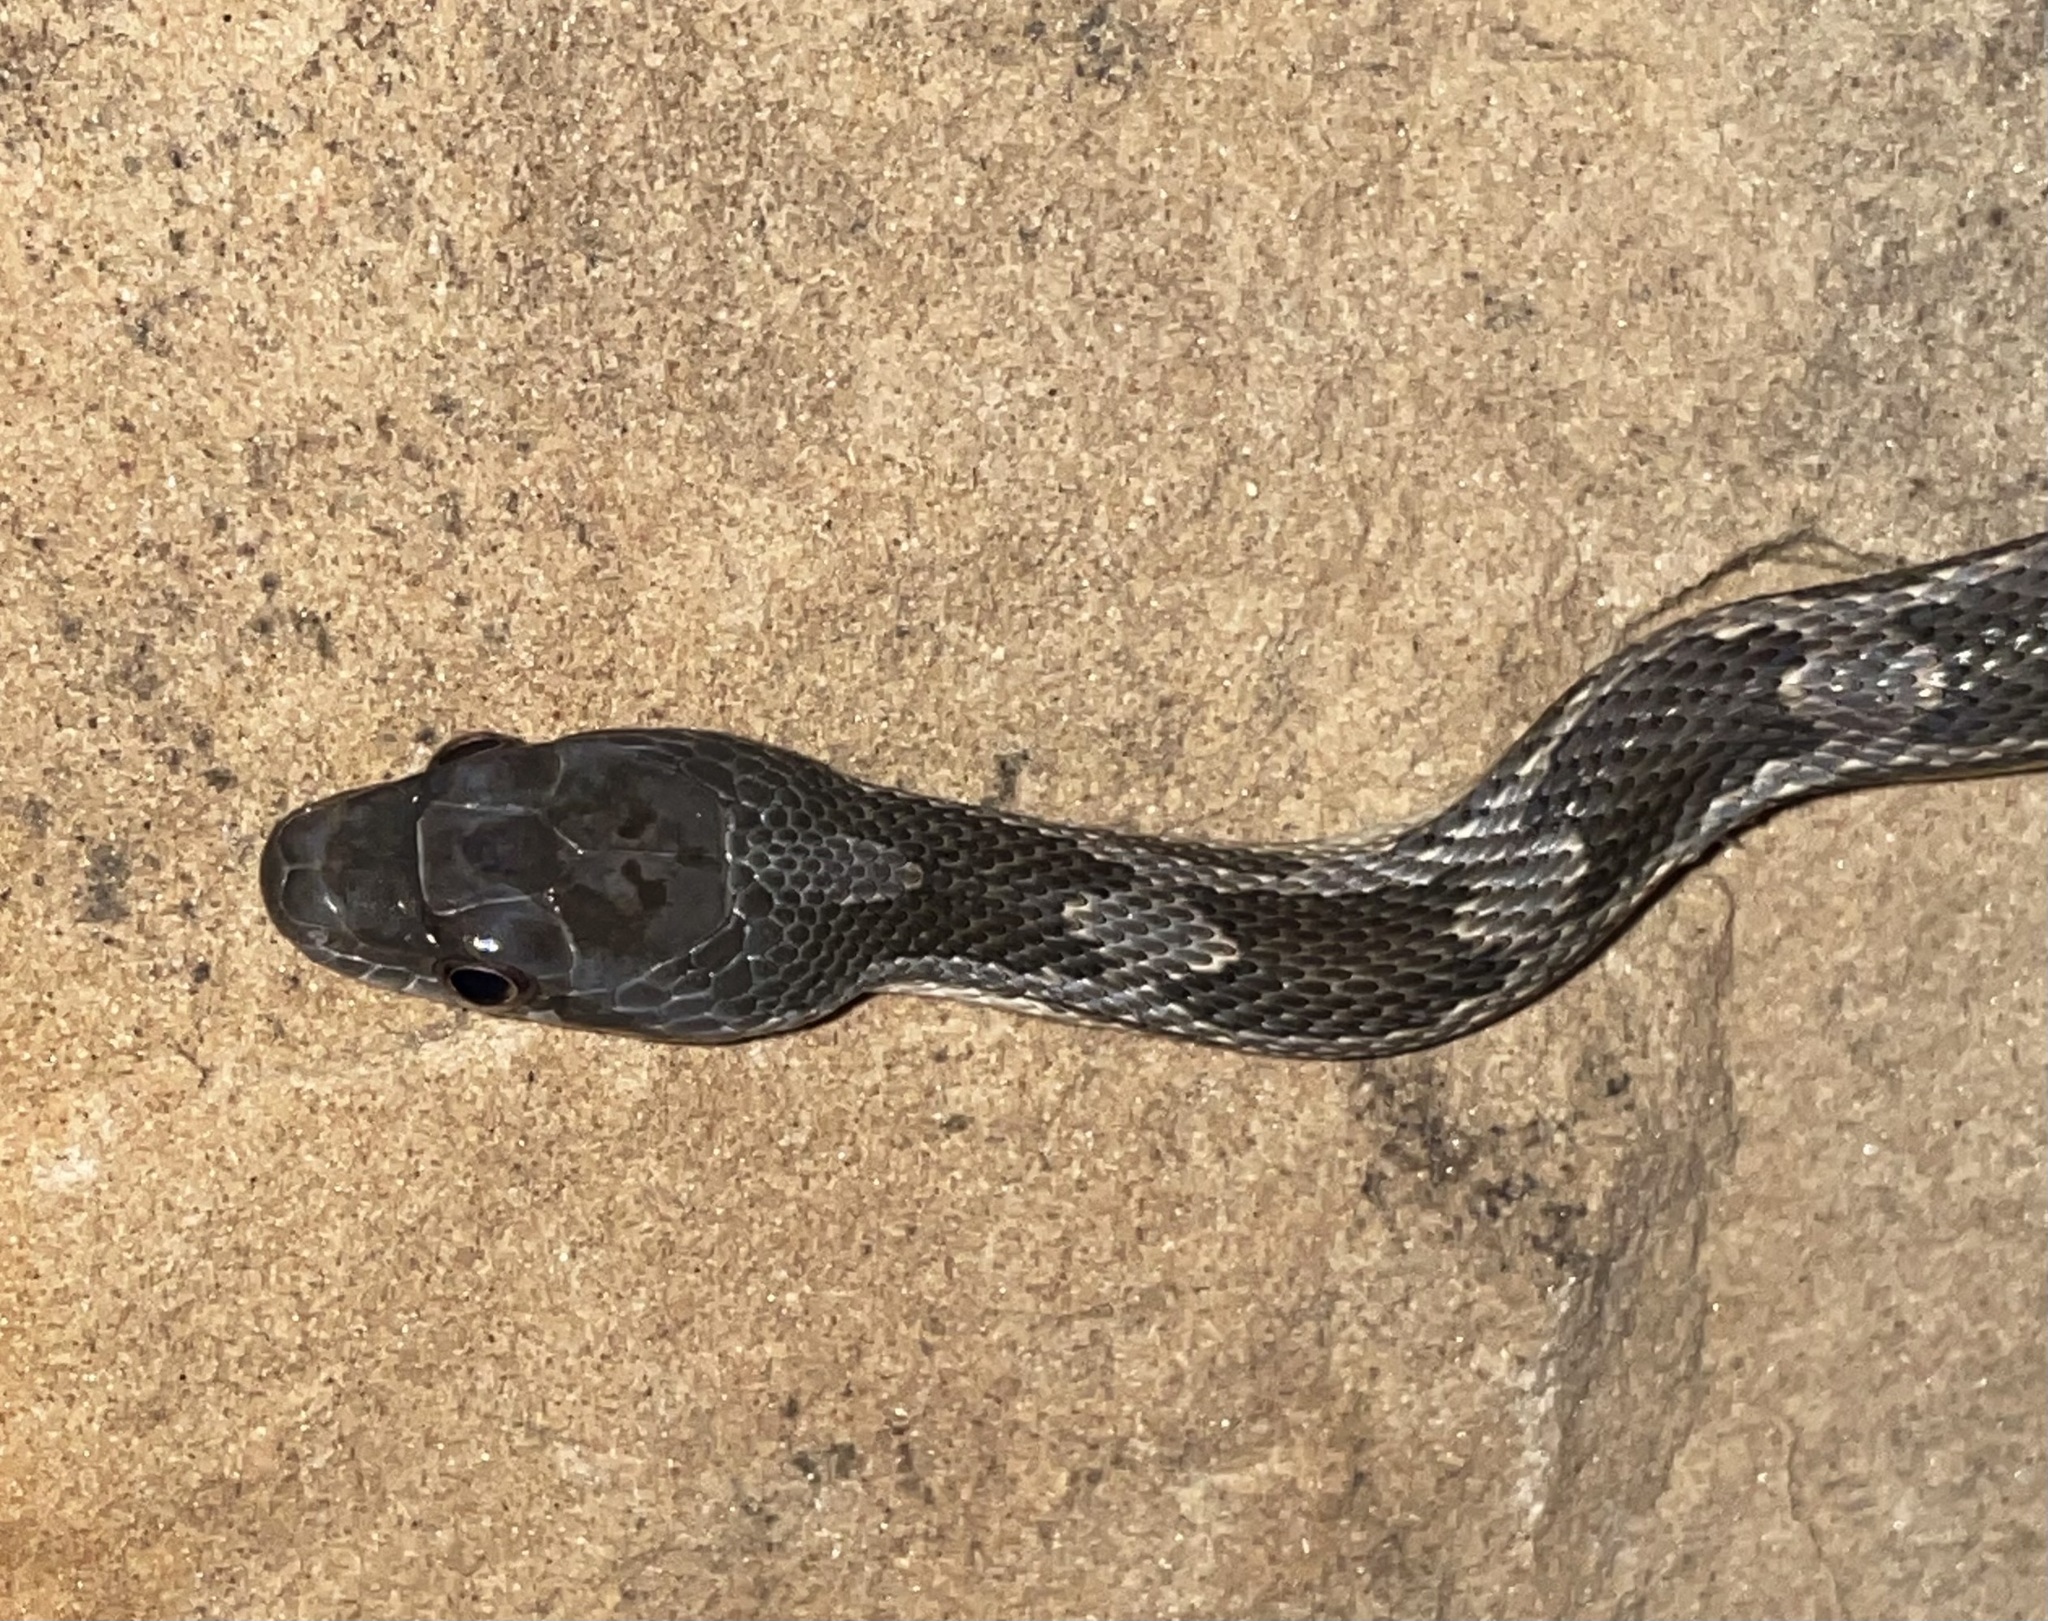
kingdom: Animalia
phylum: Chordata
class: Squamata
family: Colubridae
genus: Pantherophis
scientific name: Pantherophis obsoletus
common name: Black rat snake
